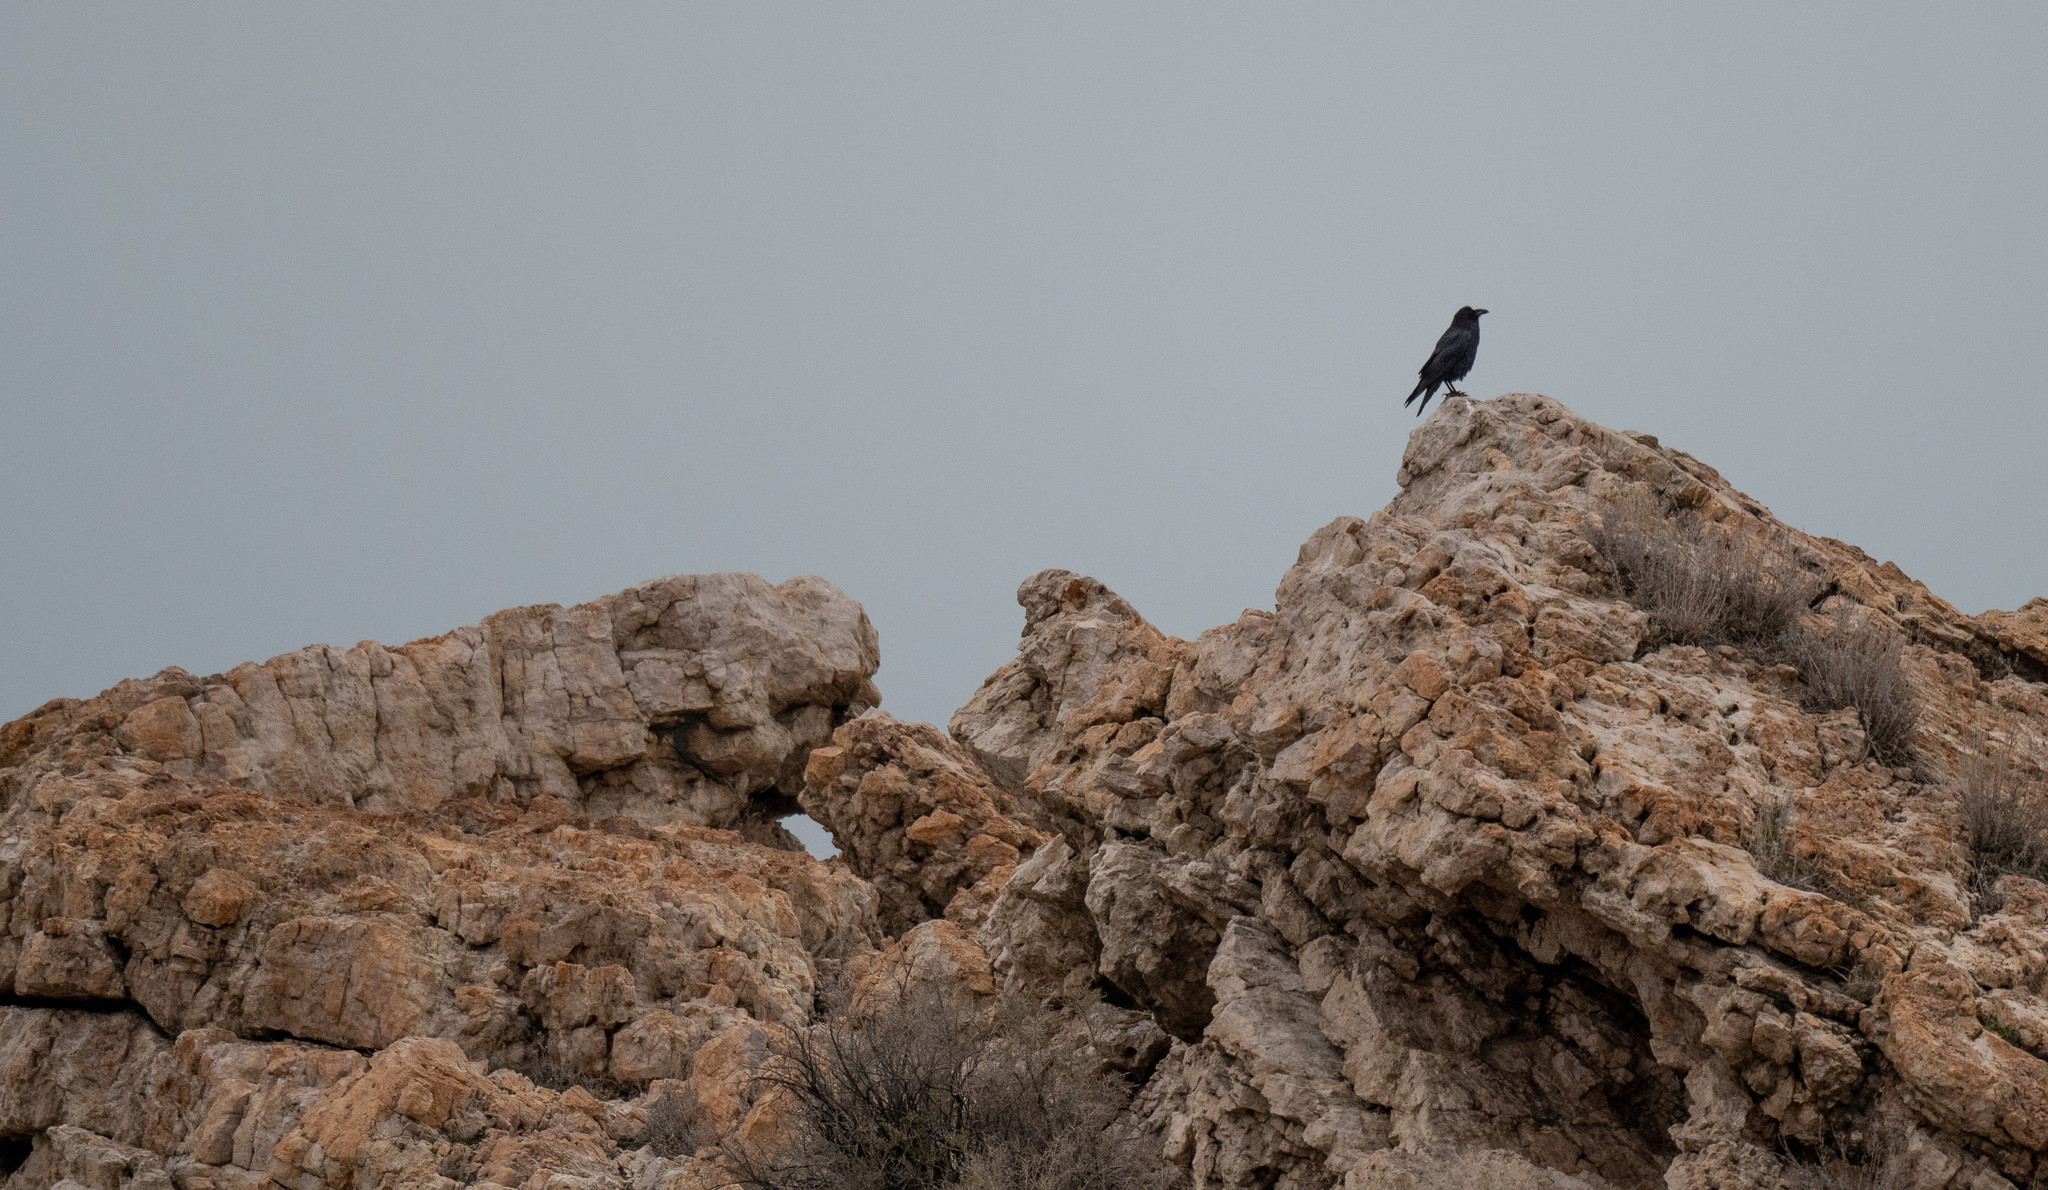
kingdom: Animalia
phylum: Chordata
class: Aves
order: Passeriformes
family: Corvidae
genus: Corvus
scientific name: Corvus corax
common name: Common raven
